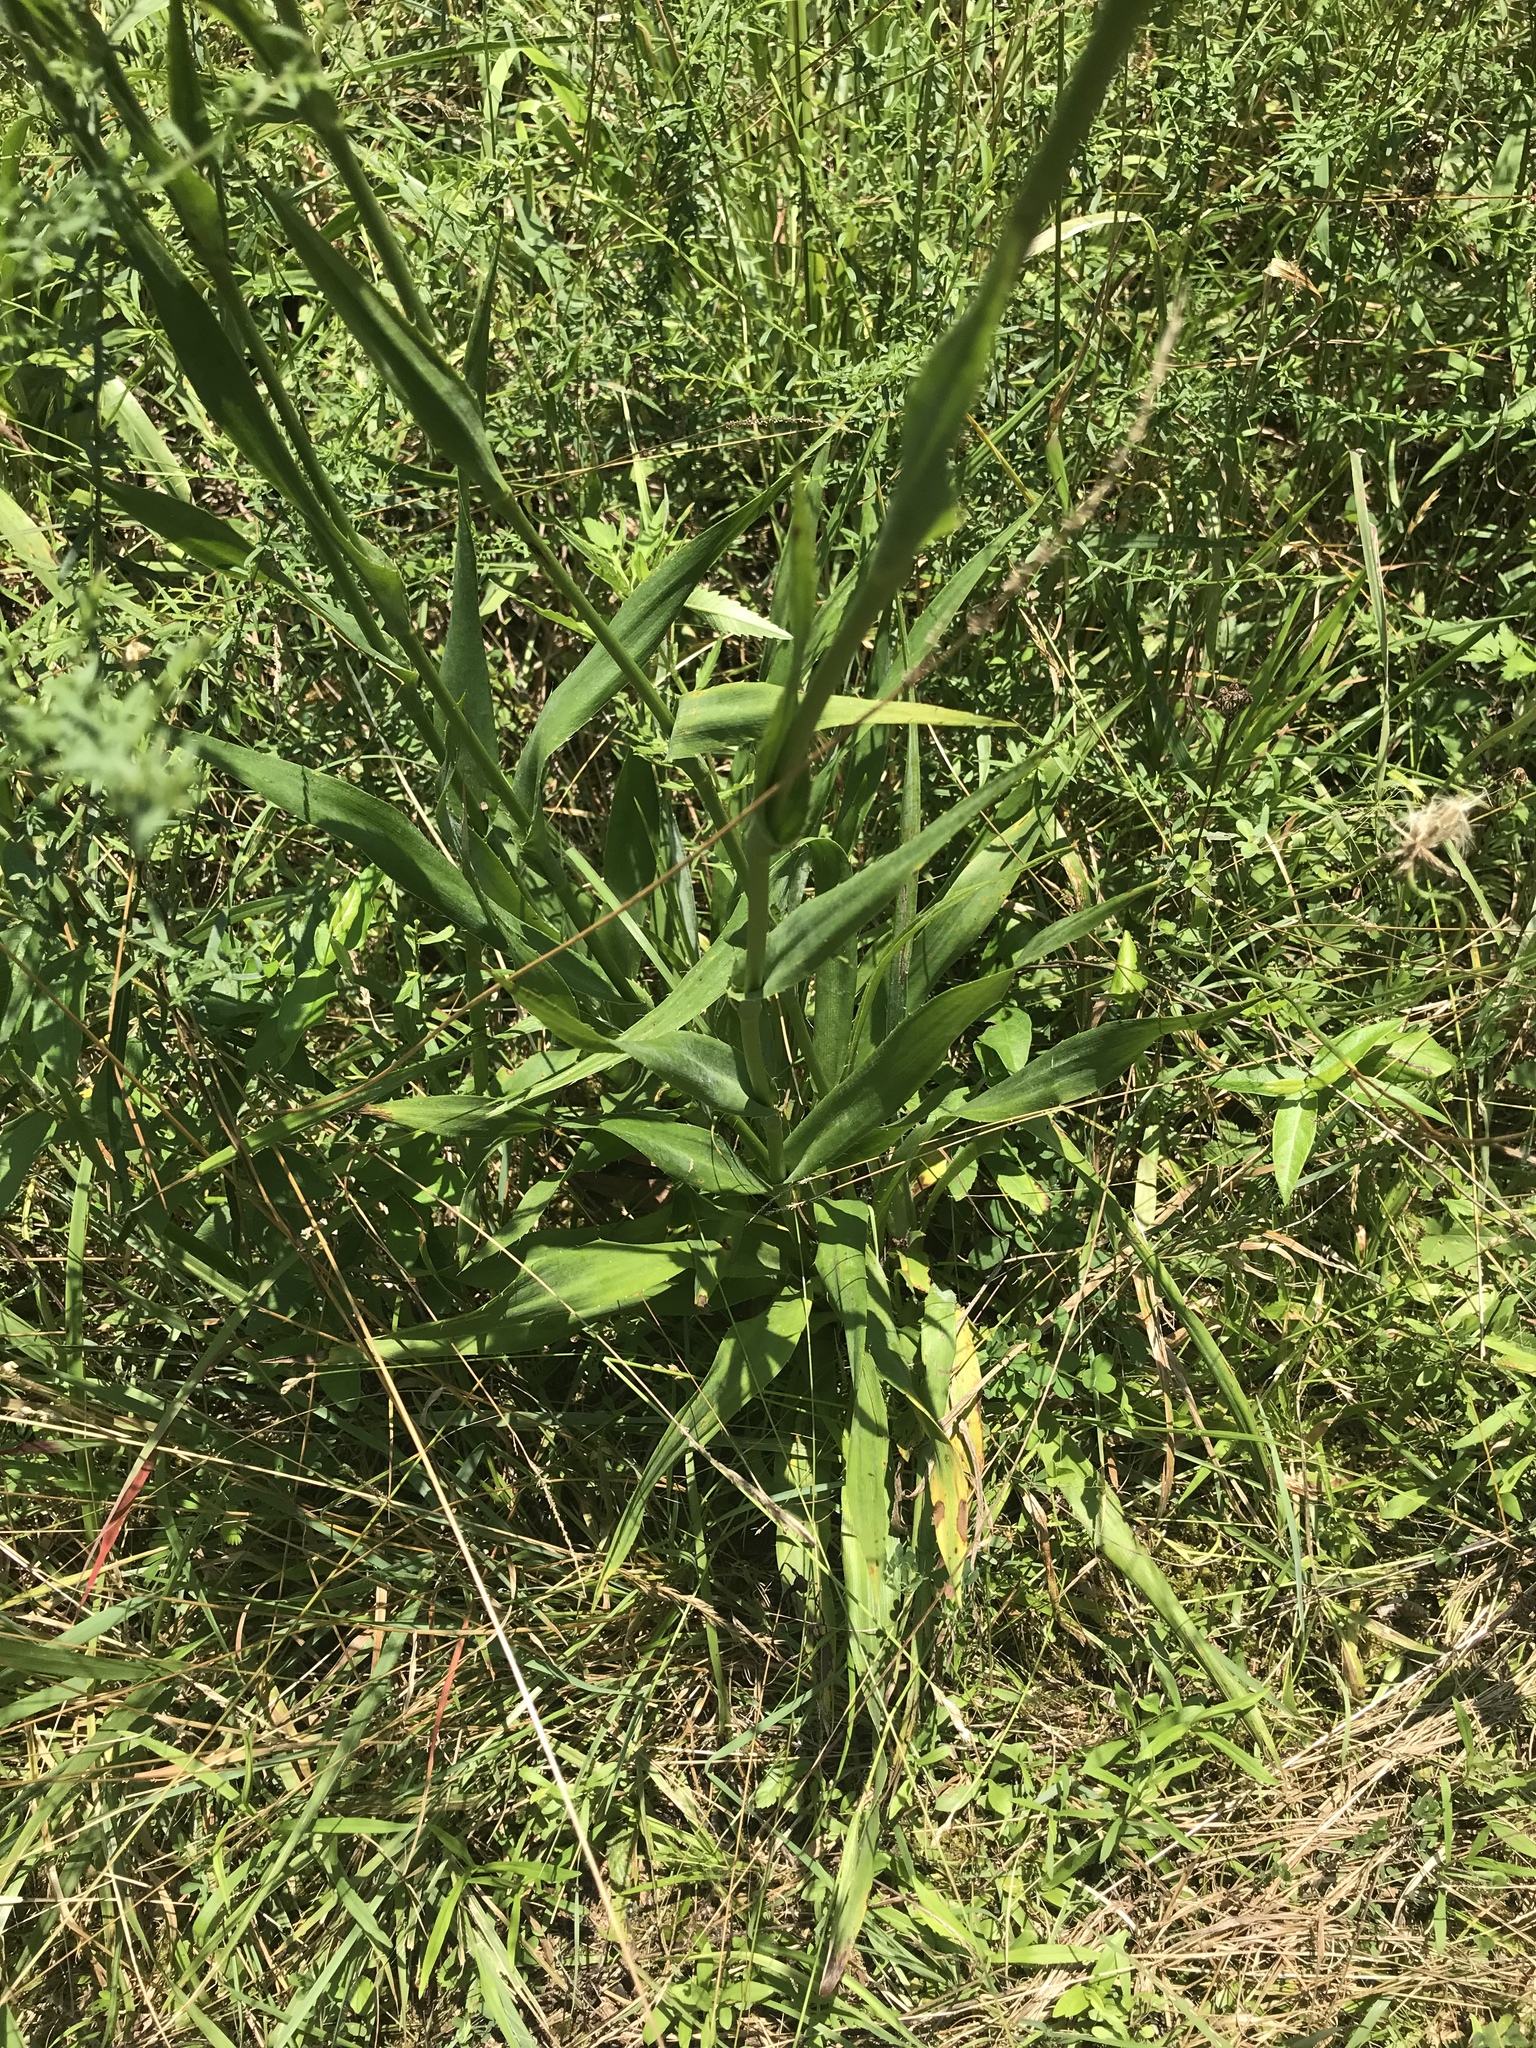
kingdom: Plantae
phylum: Tracheophyta
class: Magnoliopsida
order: Apiales
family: Apiaceae
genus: Eryngium
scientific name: Eryngium yuccifolium
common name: Button eryngo
